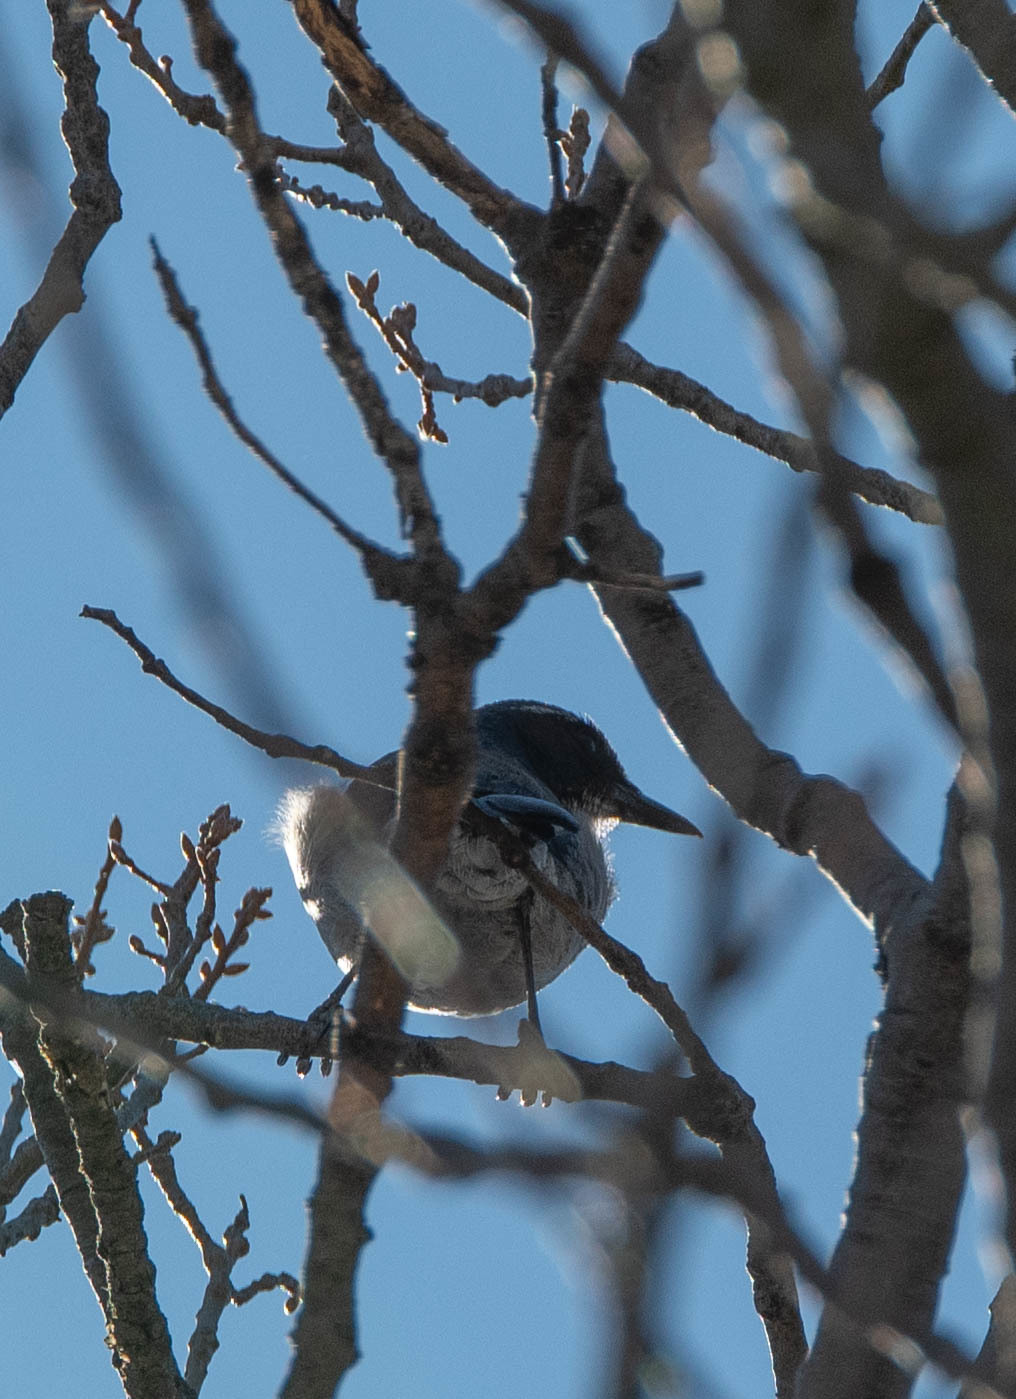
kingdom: Animalia
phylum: Chordata
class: Aves
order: Passeriformes
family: Corvidae
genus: Aphelocoma
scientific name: Aphelocoma californica
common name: California scrub-jay
